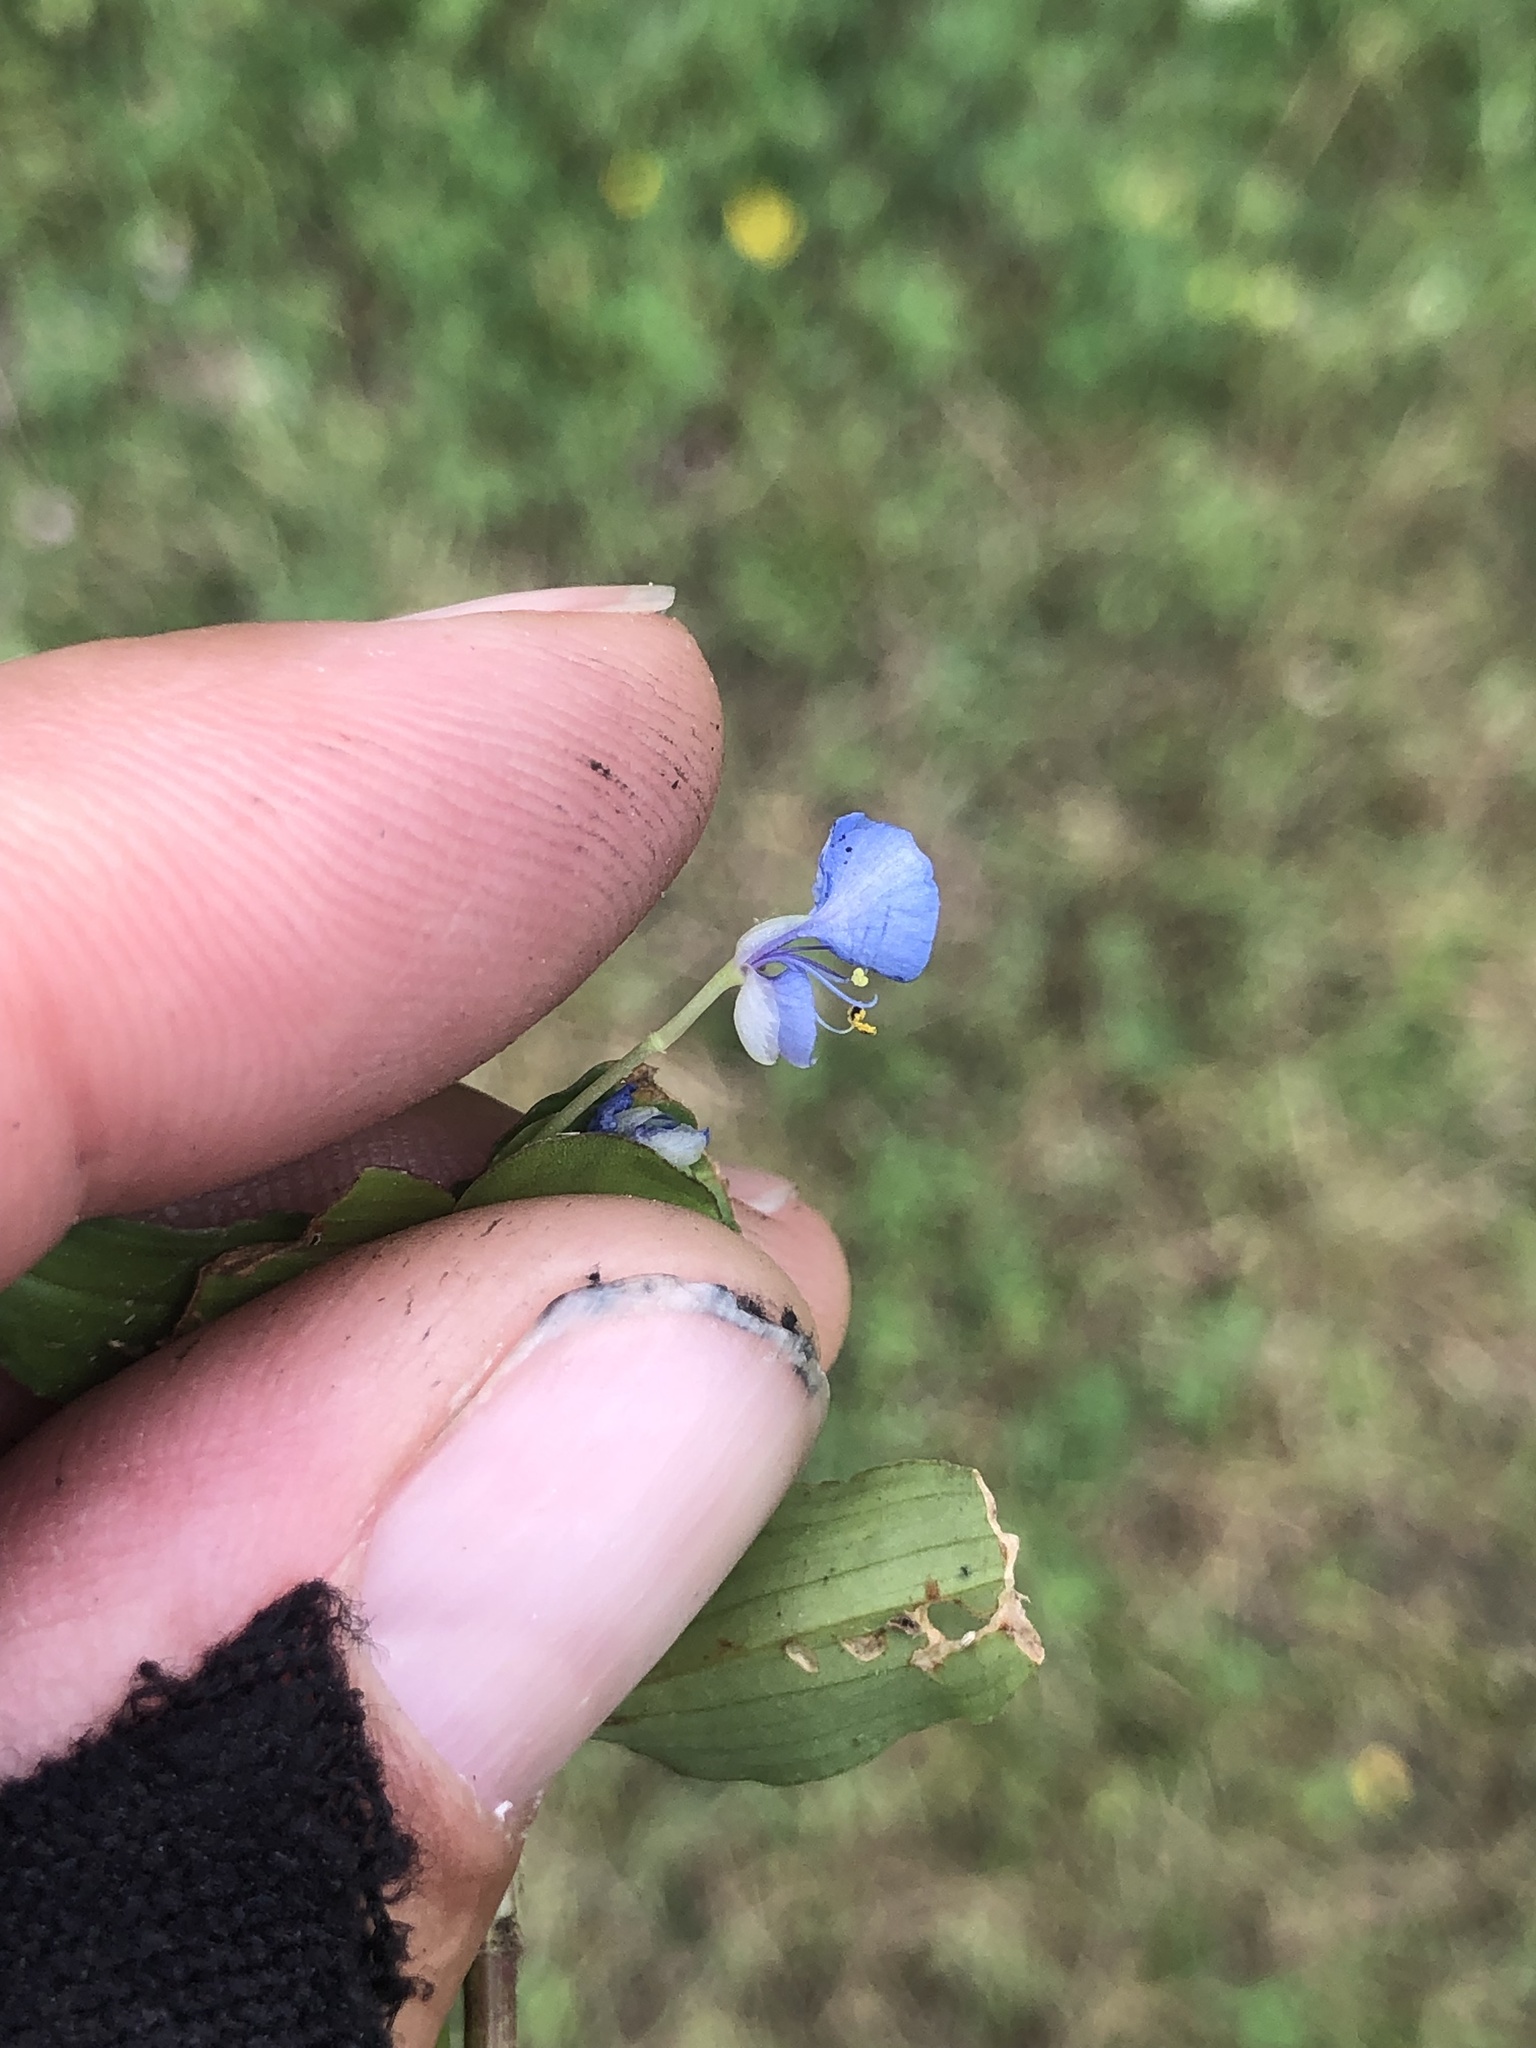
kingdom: Plantae
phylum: Tracheophyta
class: Liliopsida
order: Commelinales
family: Commelinaceae
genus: Commelina
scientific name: Commelina diffusa
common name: Climbing dayflower
